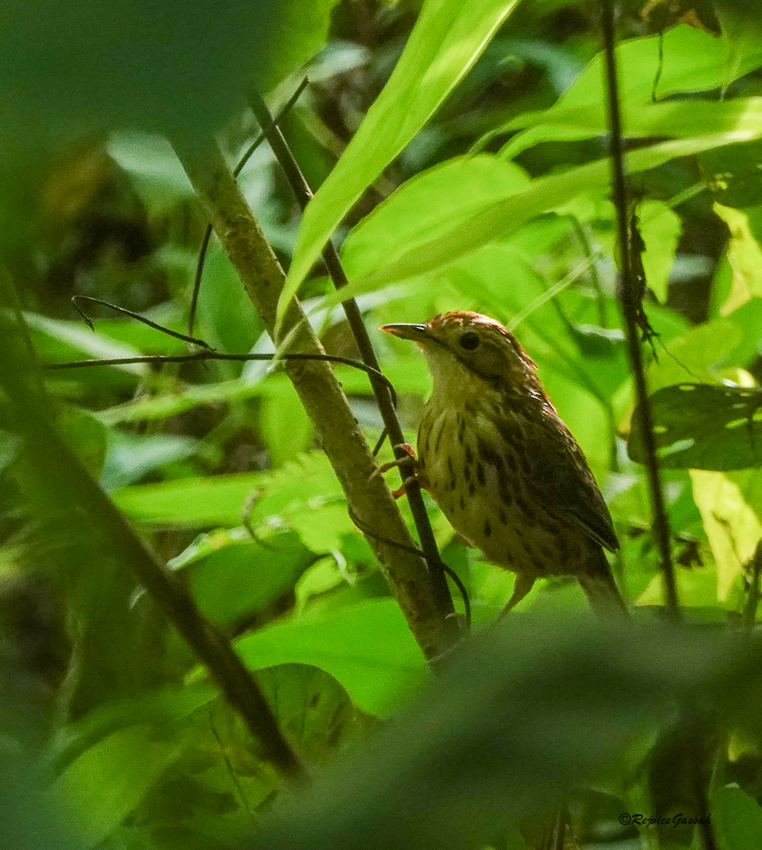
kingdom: Animalia
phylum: Chordata
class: Aves
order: Passeriformes
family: Pellorneidae
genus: Pellorneum
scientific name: Pellorneum ruficeps
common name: Puff-throated babbler
